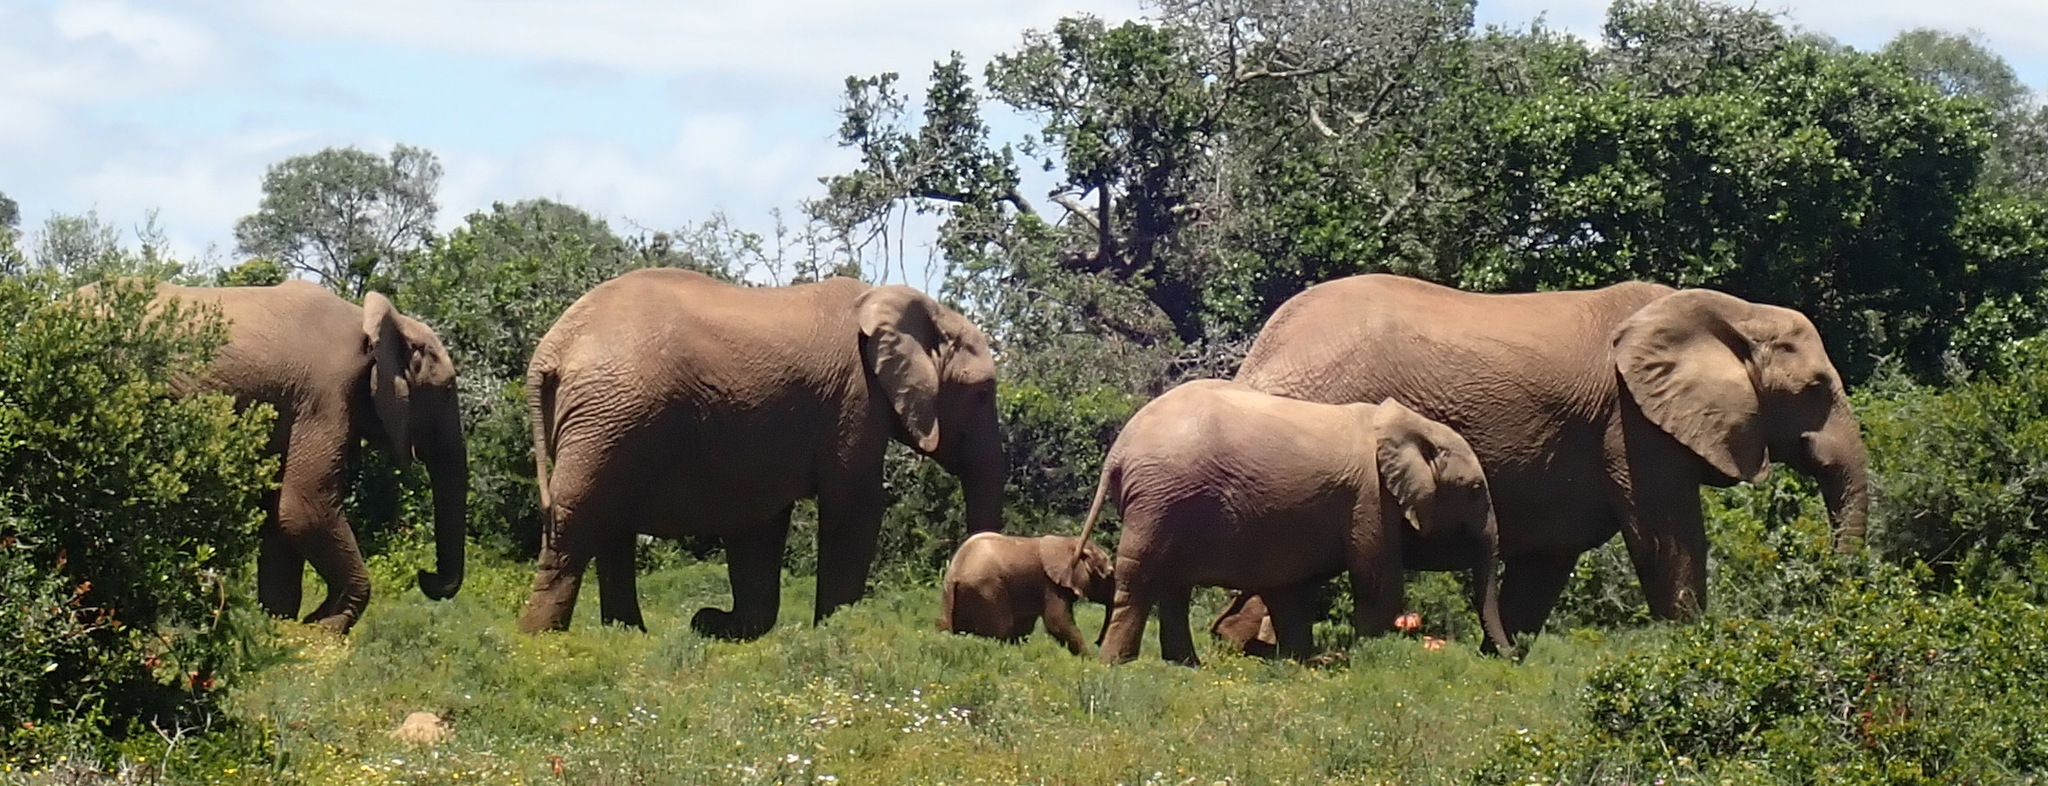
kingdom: Animalia
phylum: Chordata
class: Mammalia
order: Proboscidea
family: Elephantidae
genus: Loxodonta
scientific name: Loxodonta africana
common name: African elephant
